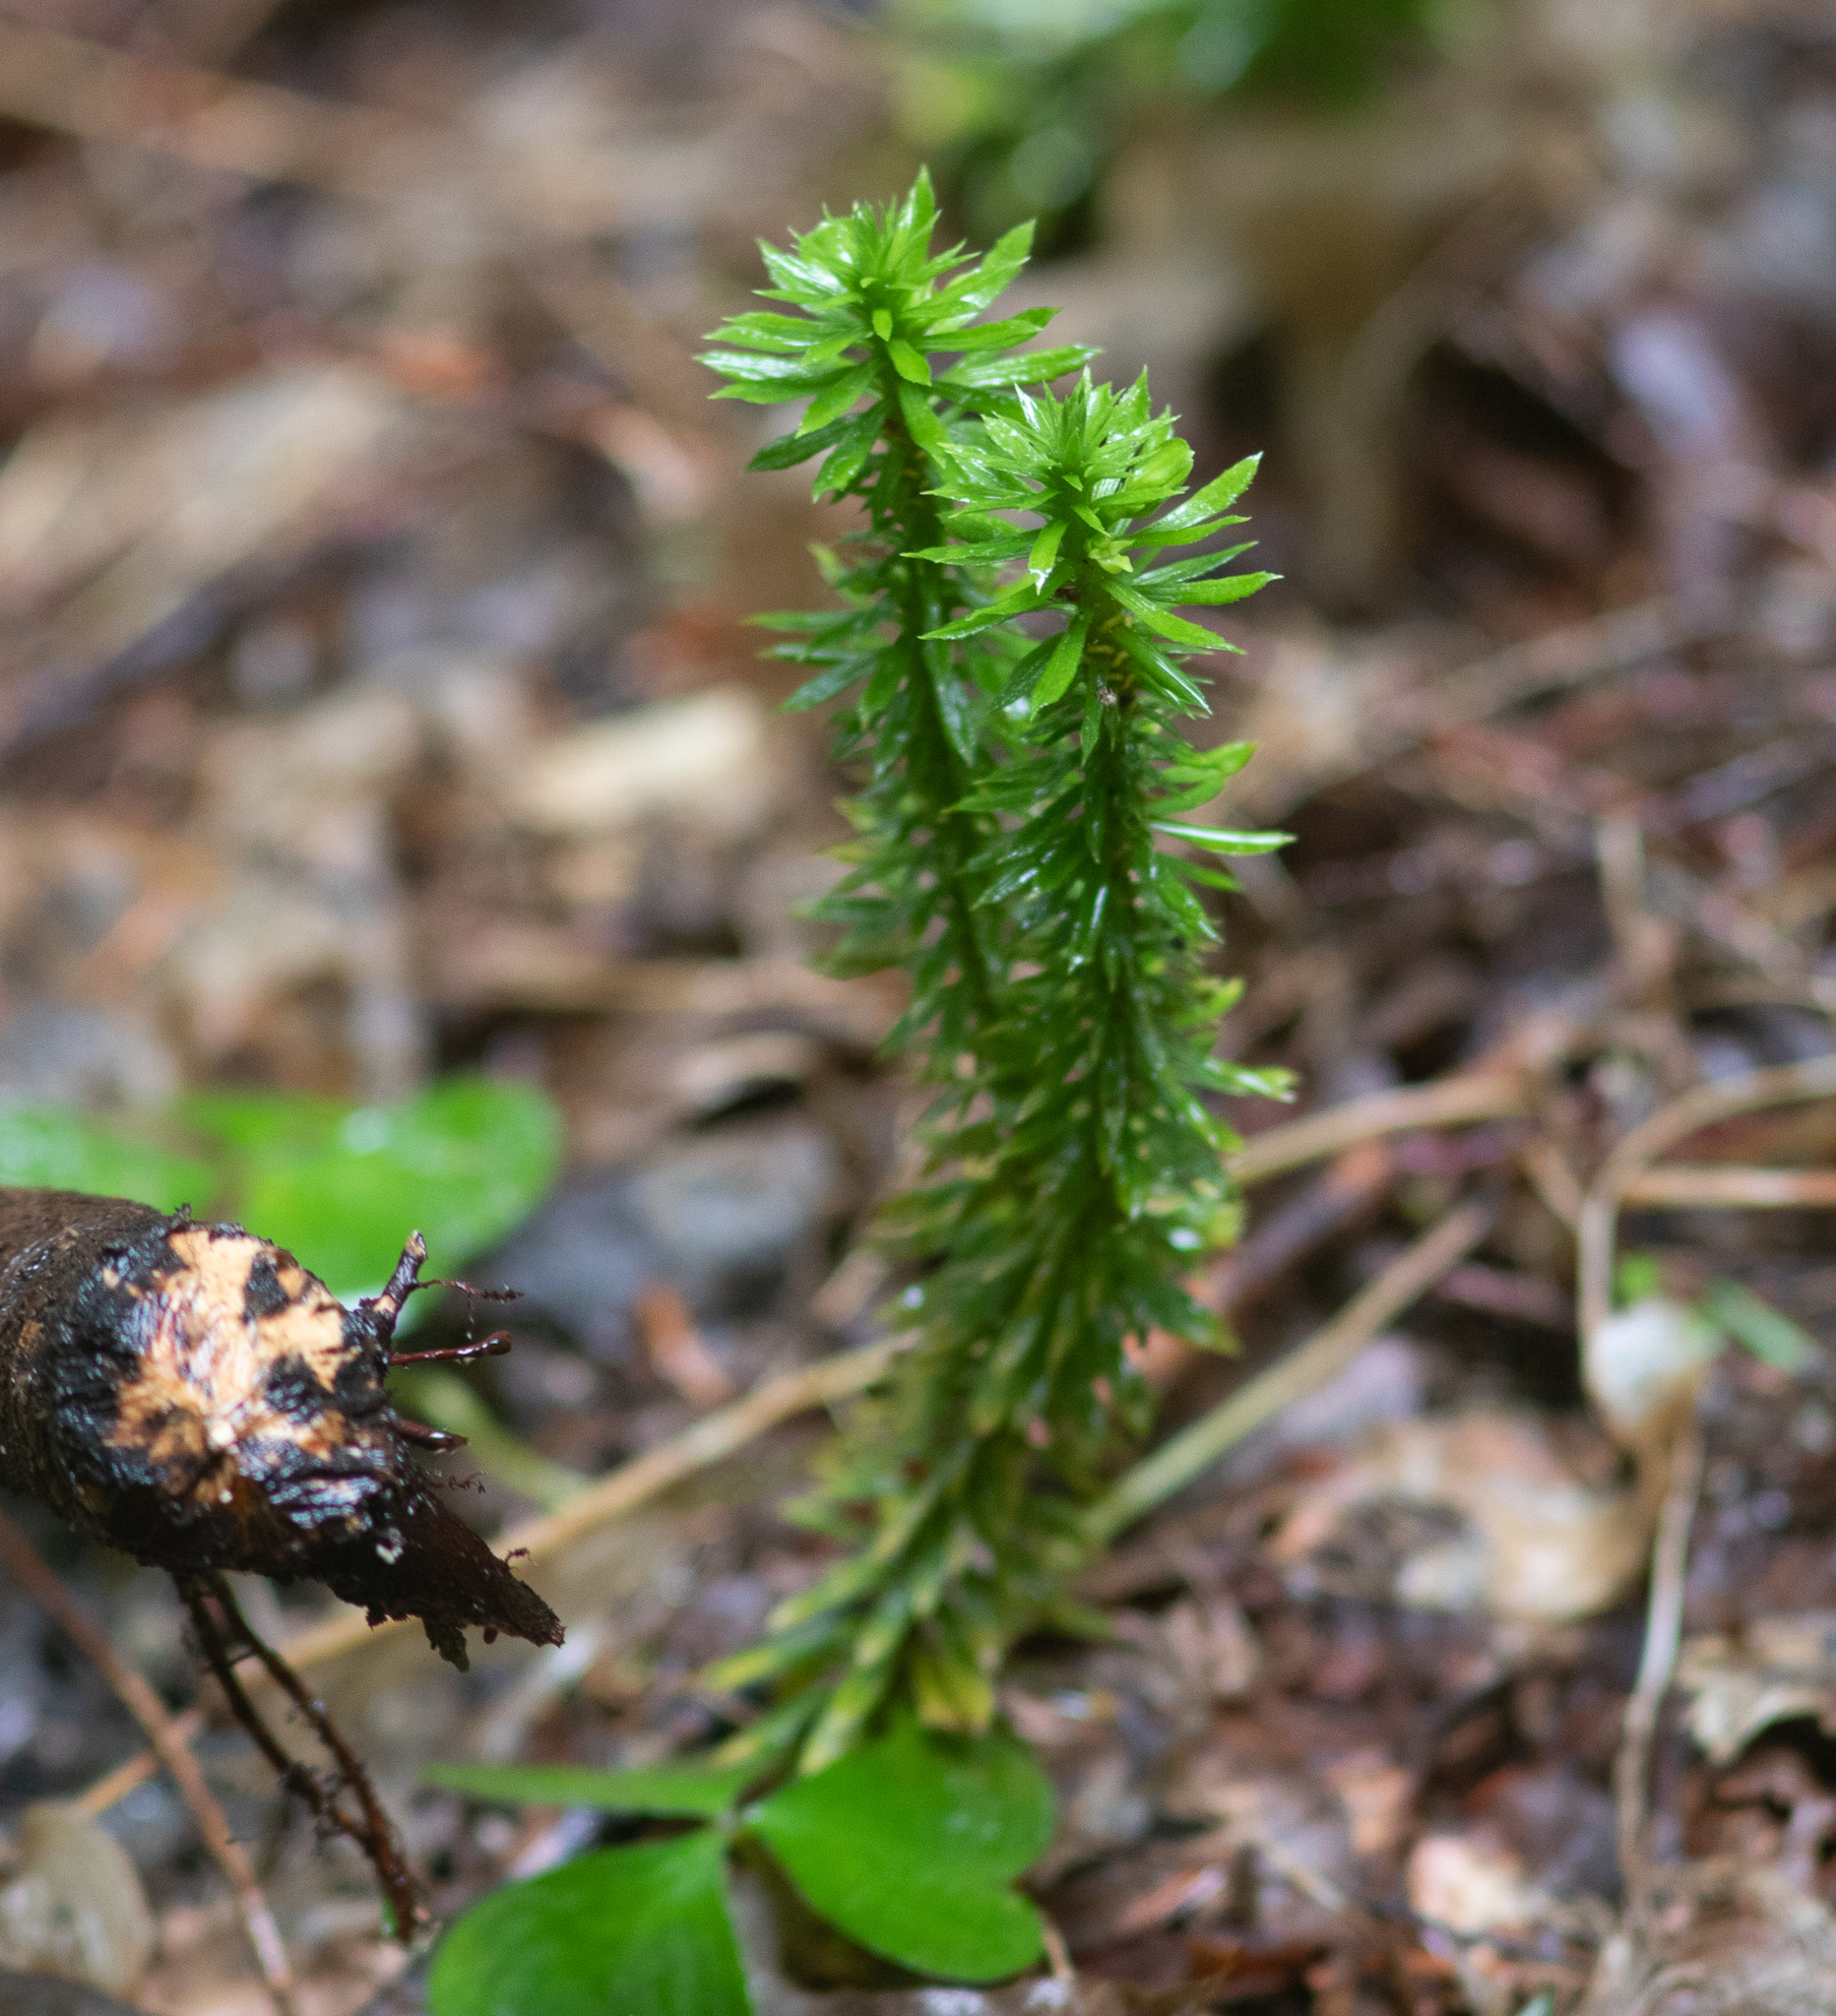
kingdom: Plantae
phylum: Tracheophyta
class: Lycopodiopsida
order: Lycopodiales
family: Lycopodiaceae
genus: Huperzia
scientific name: Huperzia lucidula
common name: Shining clubmoss
